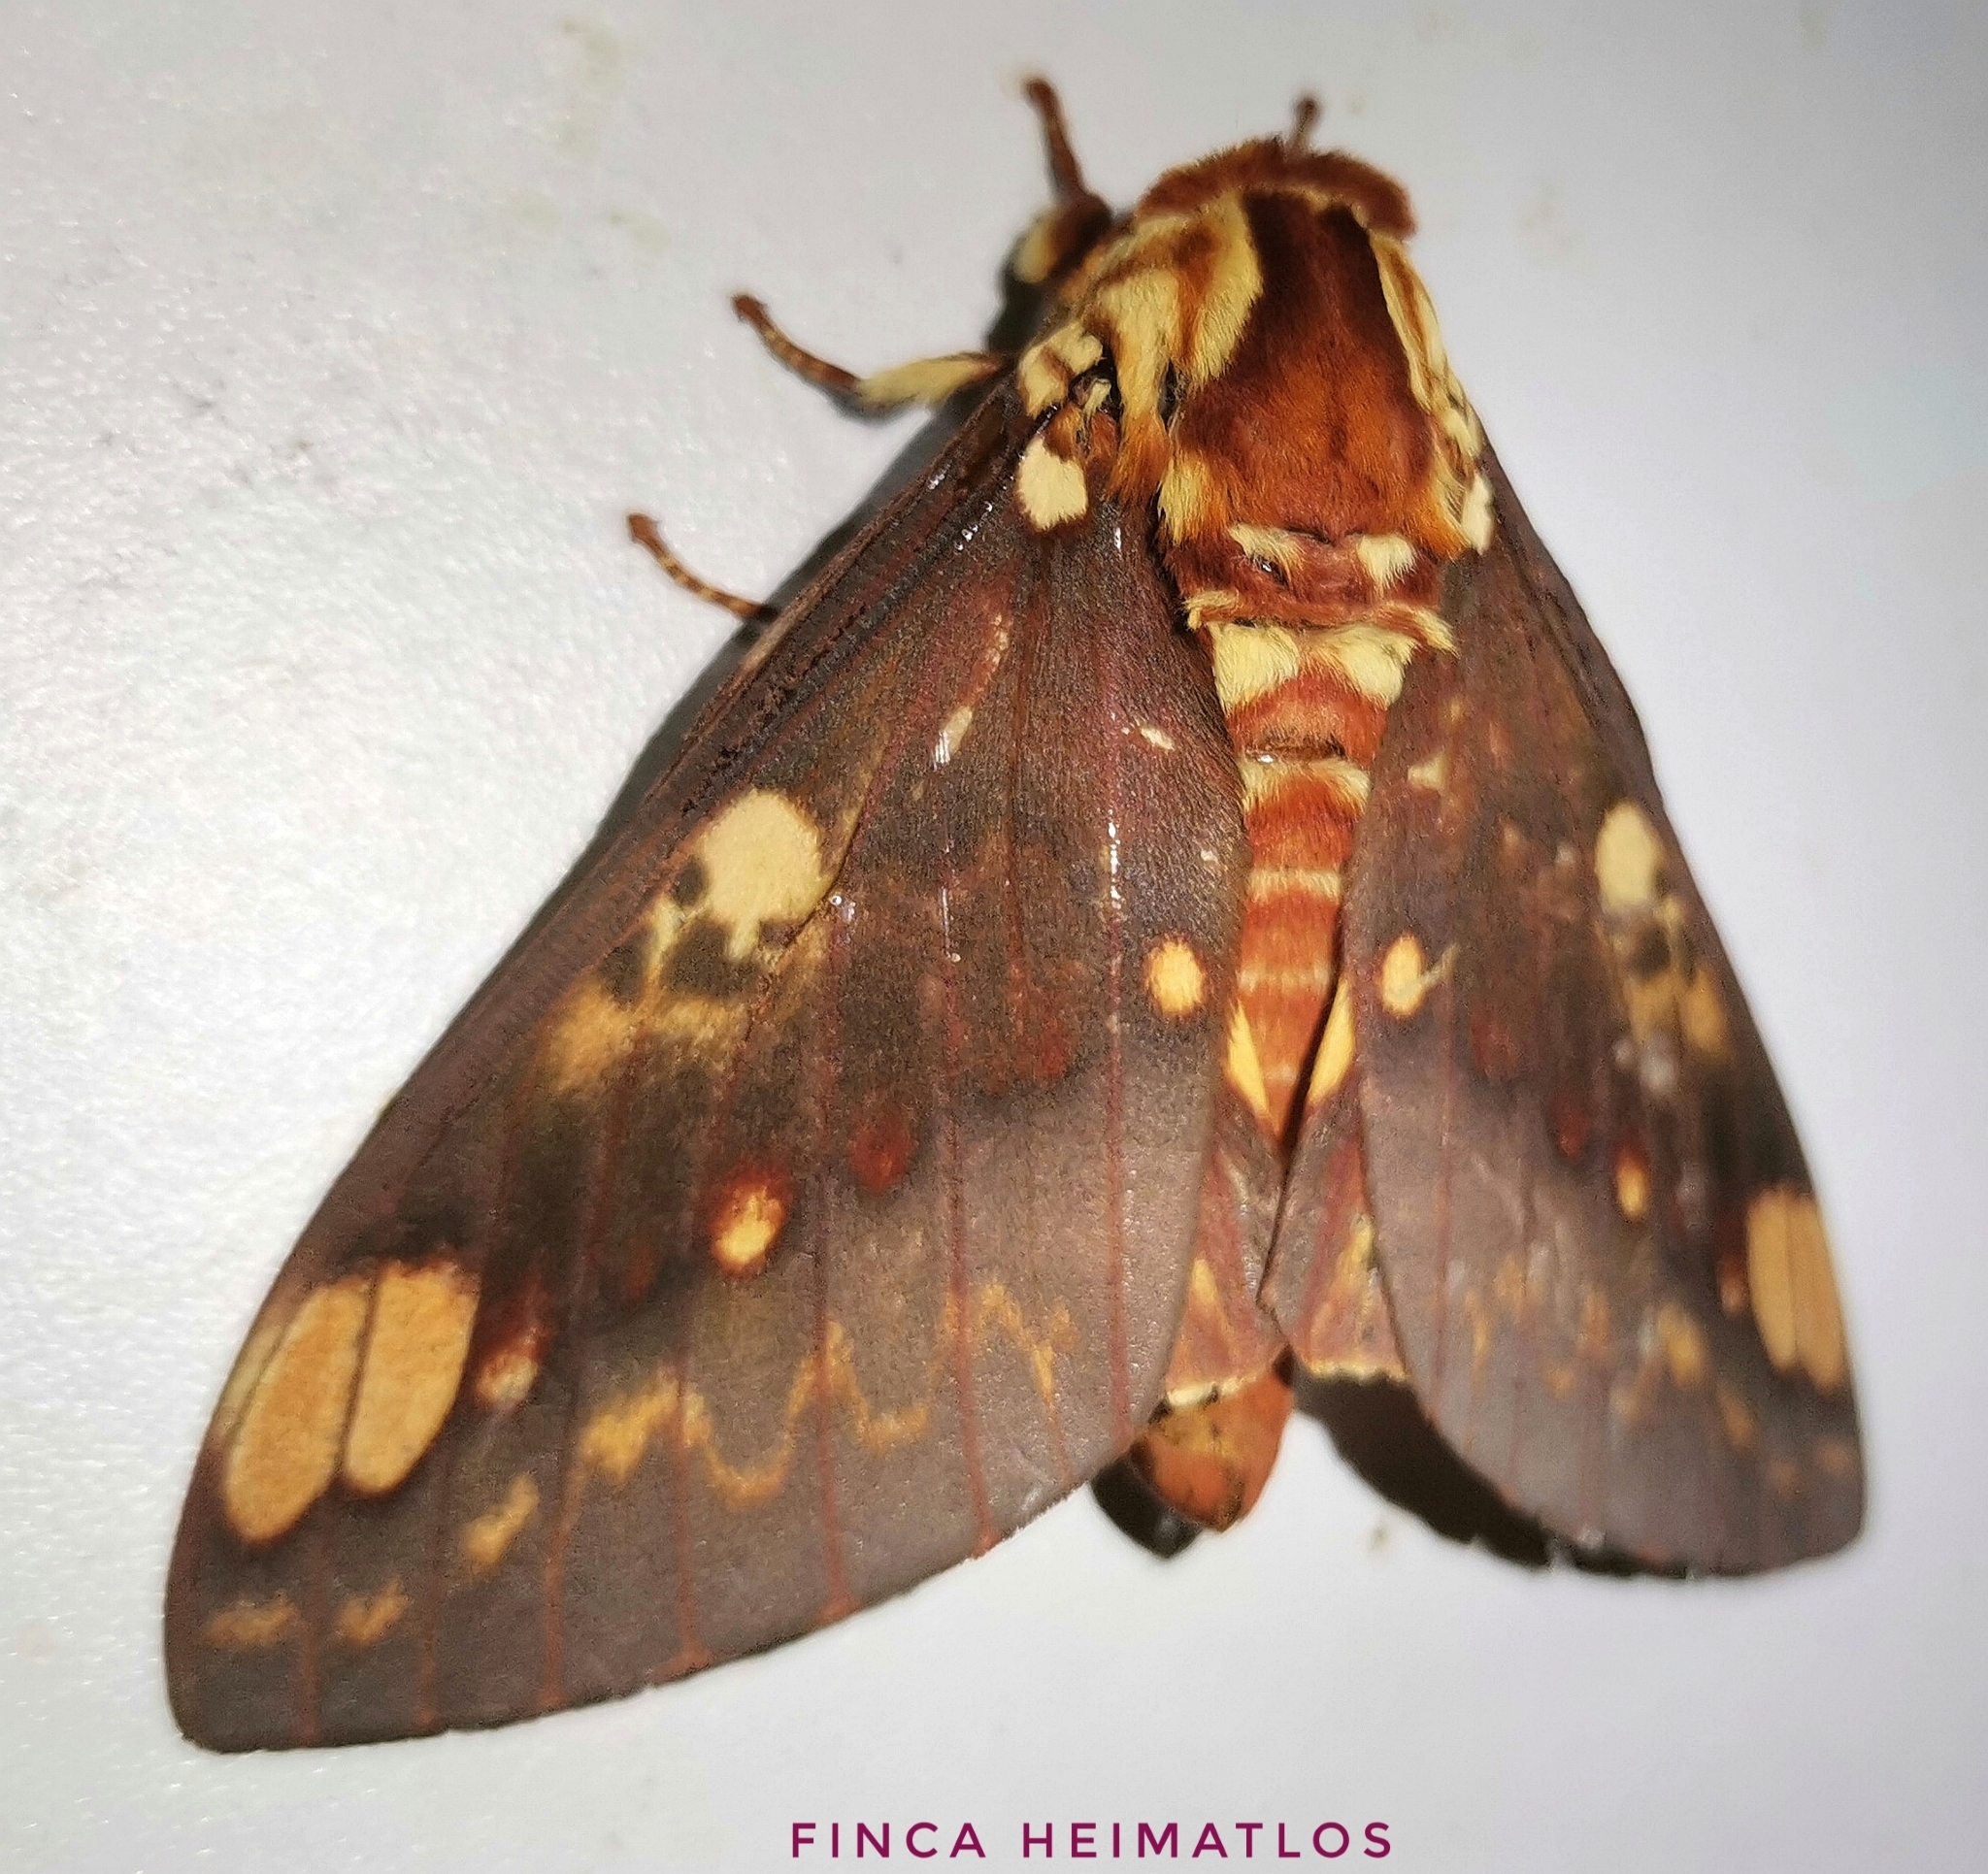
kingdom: Animalia
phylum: Arthropoda
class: Insecta
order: Lepidoptera
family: Saturniidae
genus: Citheronia
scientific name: Citheronia hamifera
